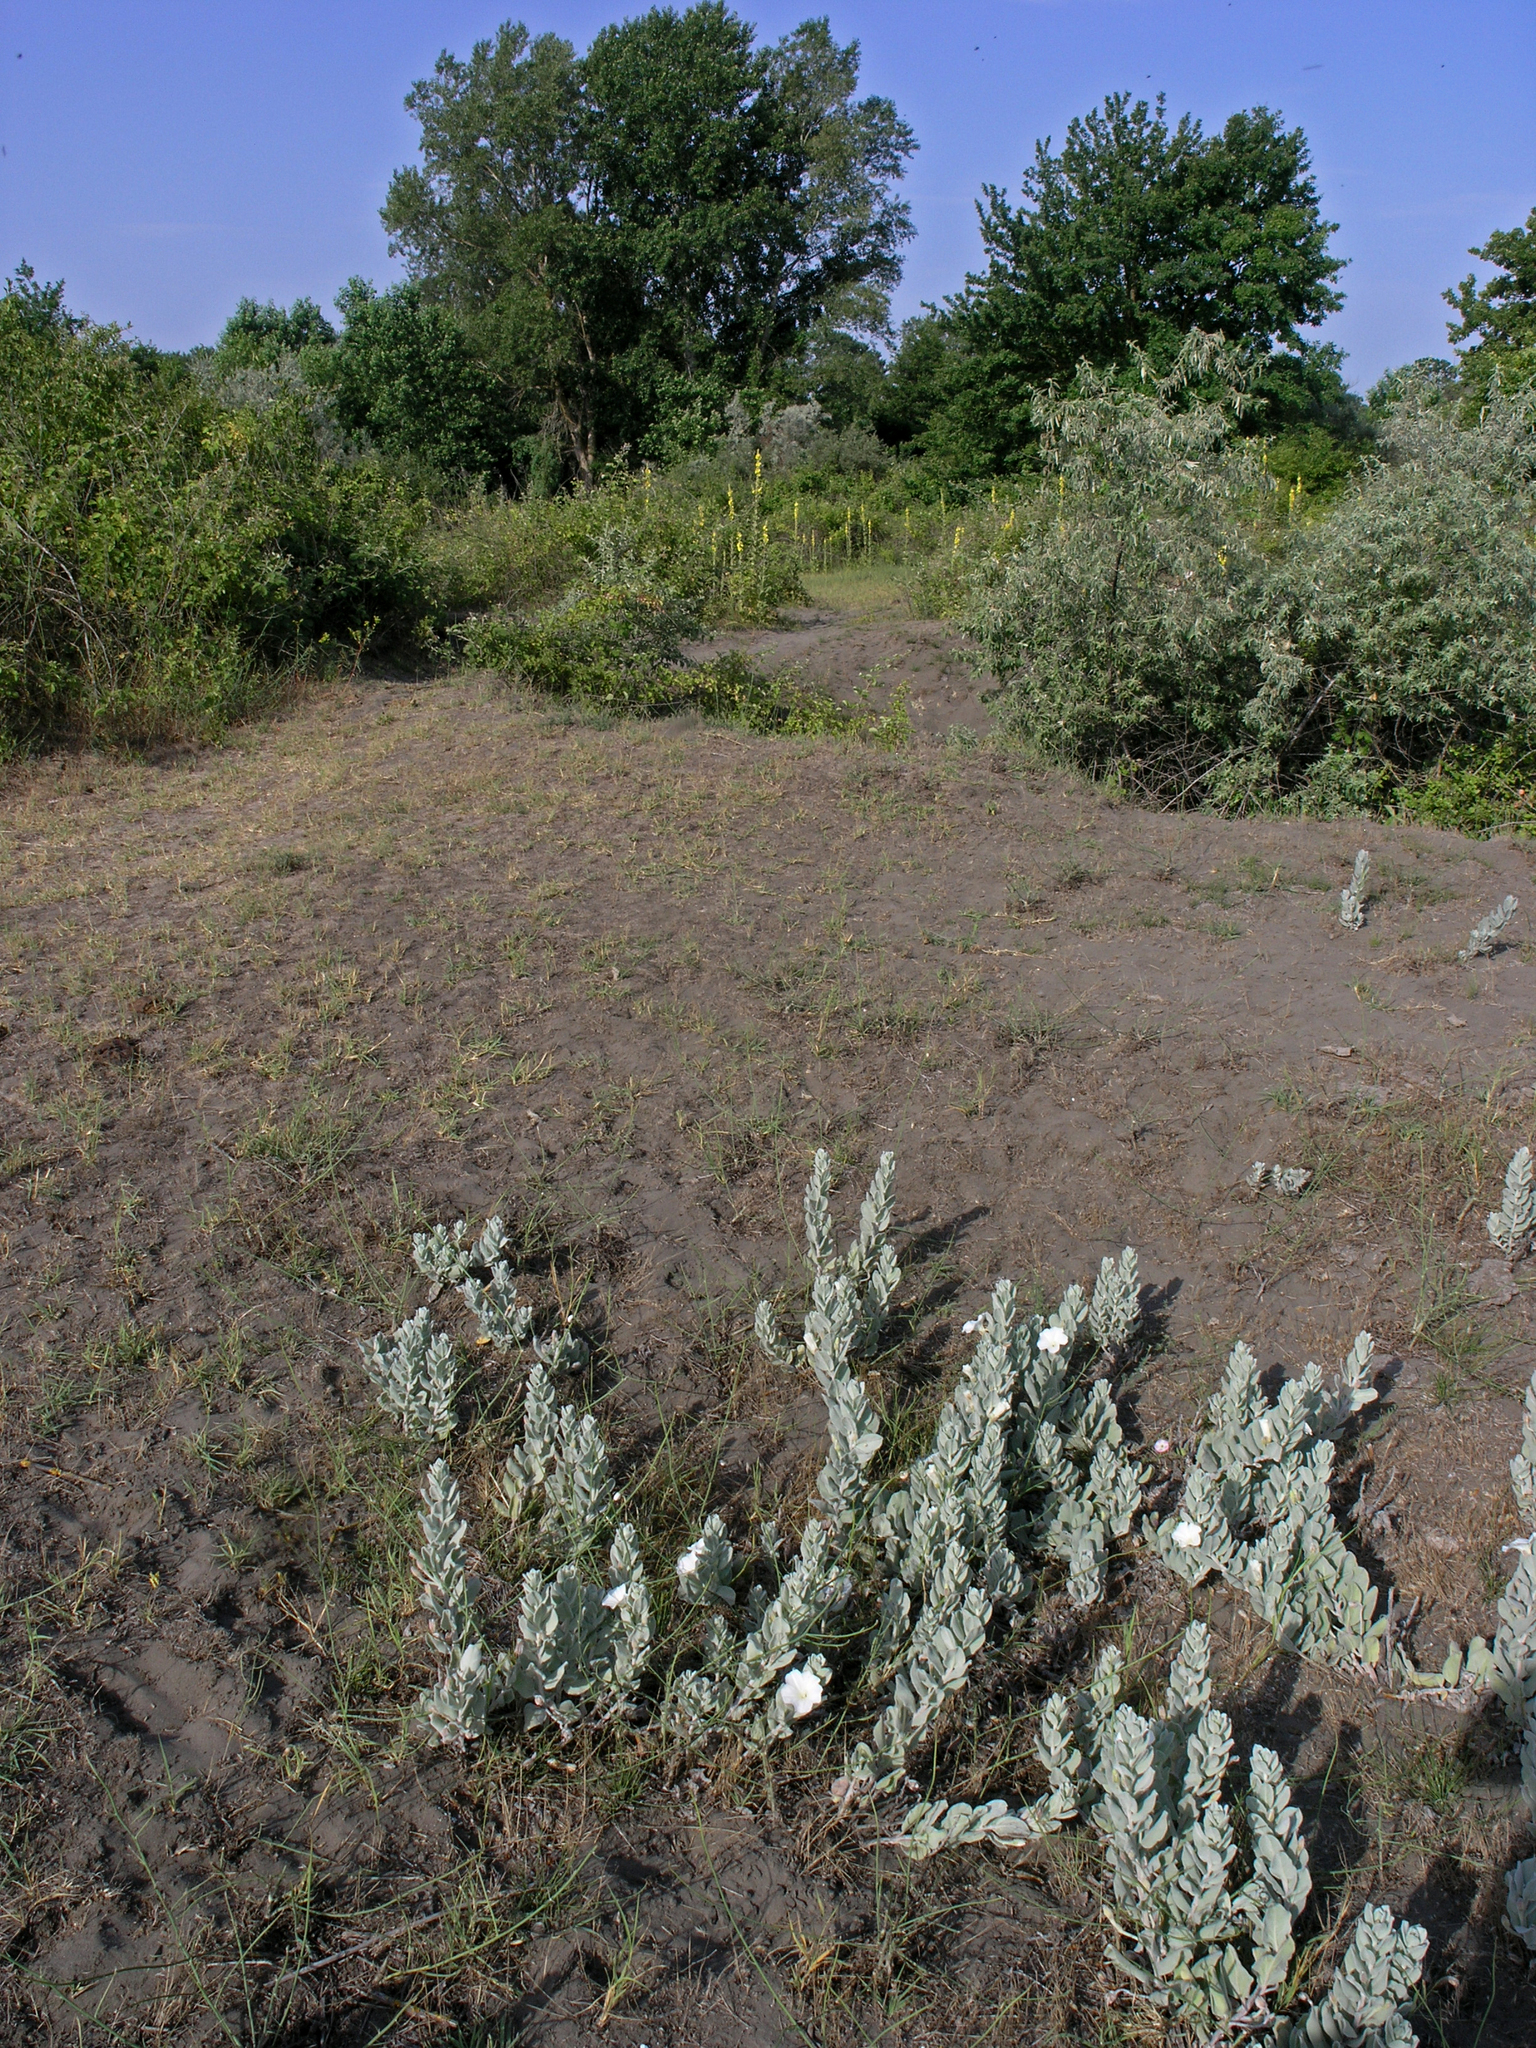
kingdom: Plantae
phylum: Tracheophyta
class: Magnoliopsida
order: Solanales
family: Convolvulaceae
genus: Convolvulus
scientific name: Convolvulus persicus
